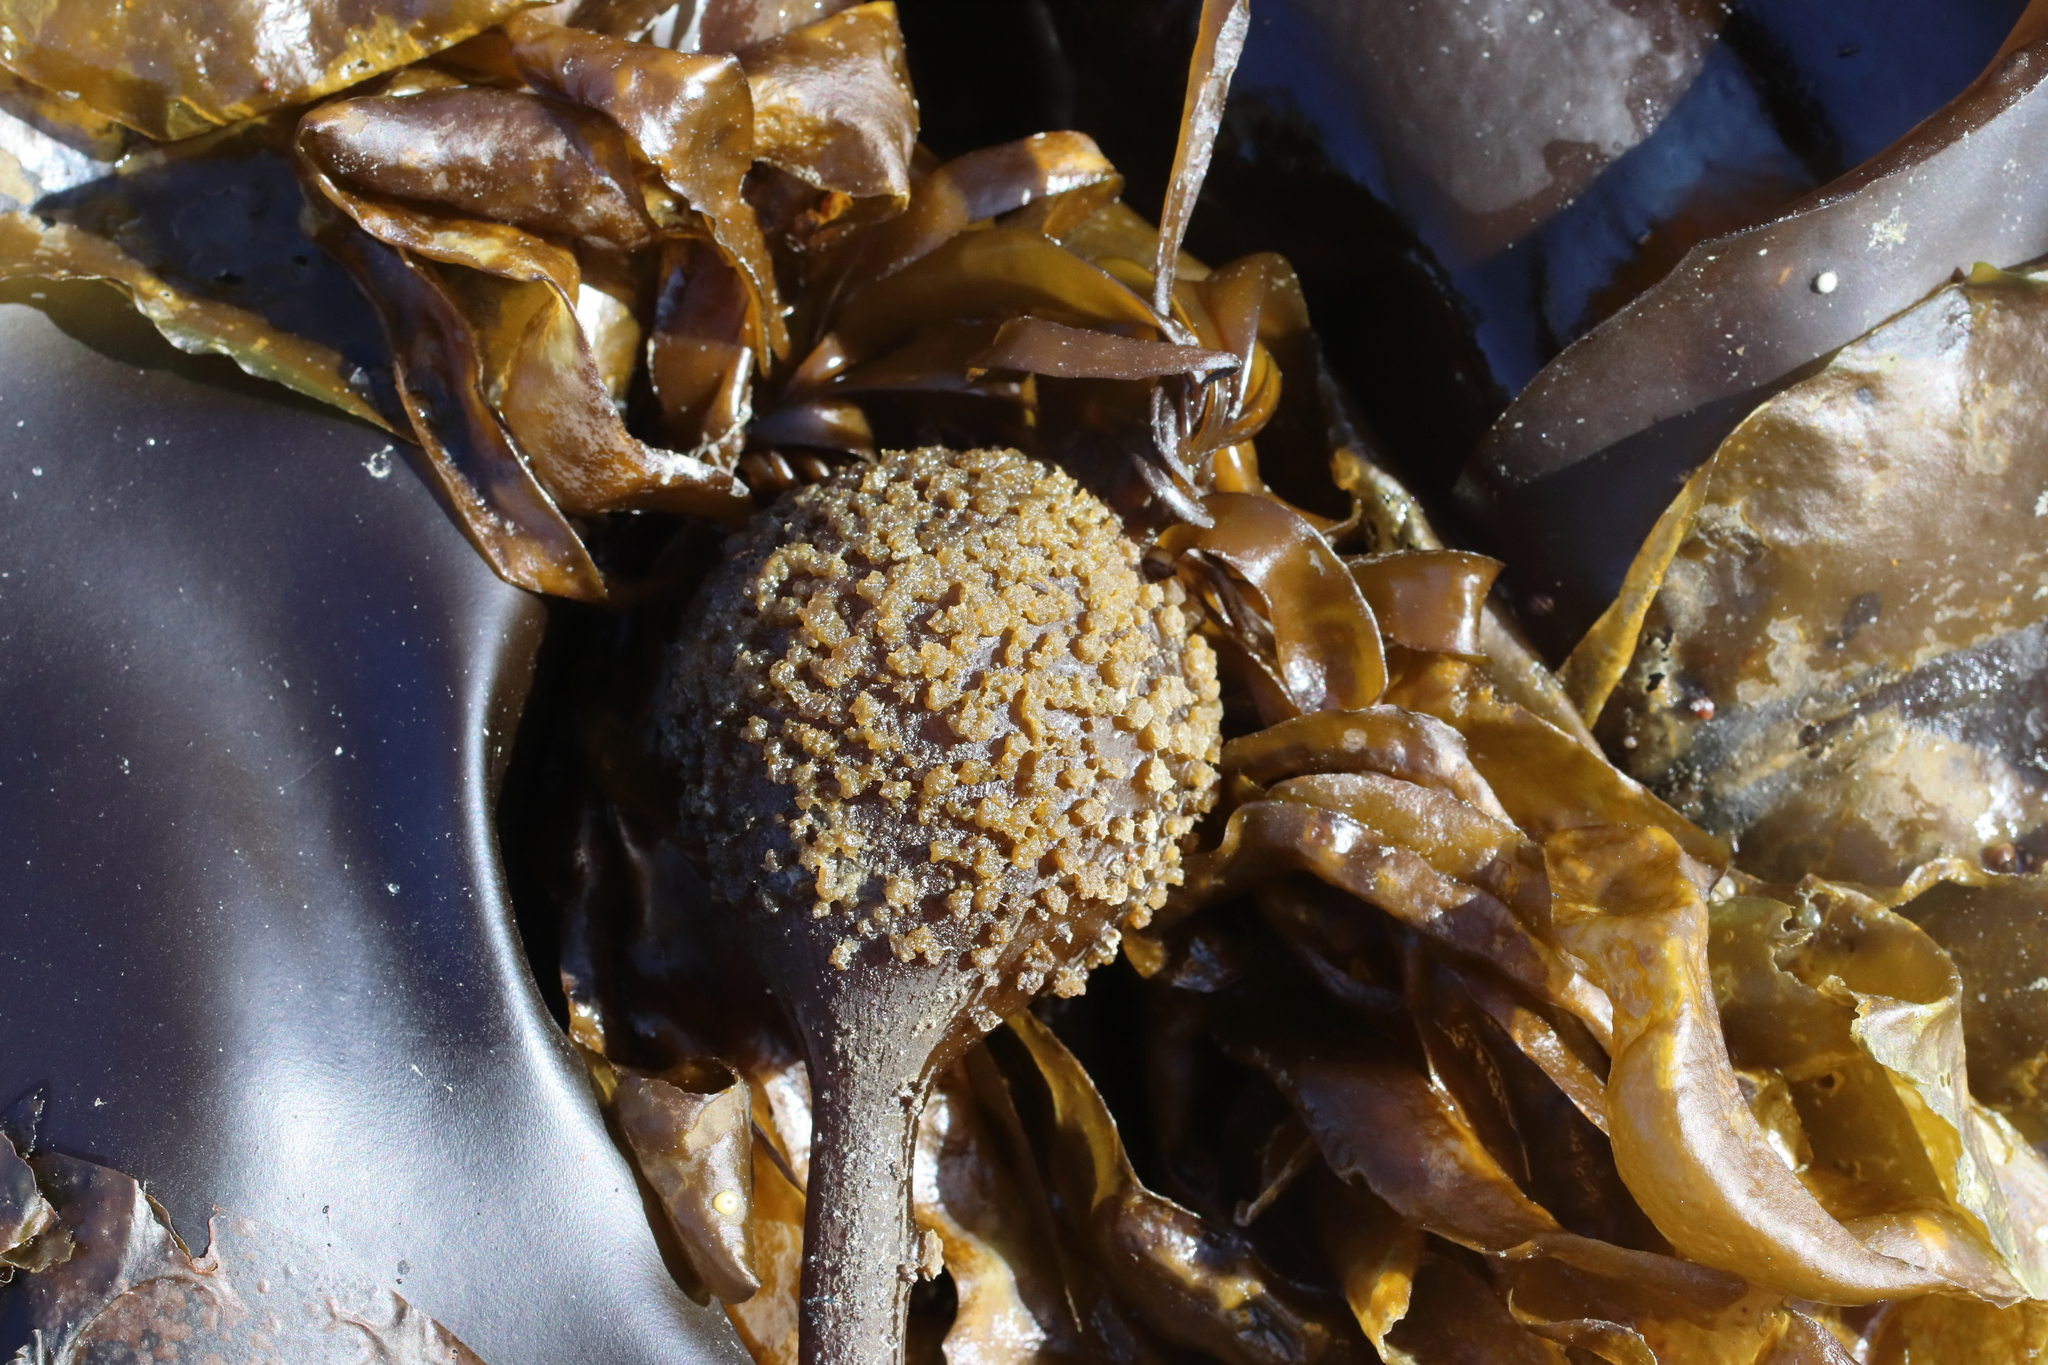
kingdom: Chromista
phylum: Ochrophyta
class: Phaeophyceae
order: Laminariales
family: Laminariaceae
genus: Nereocystis
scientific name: Nereocystis luetkeana
